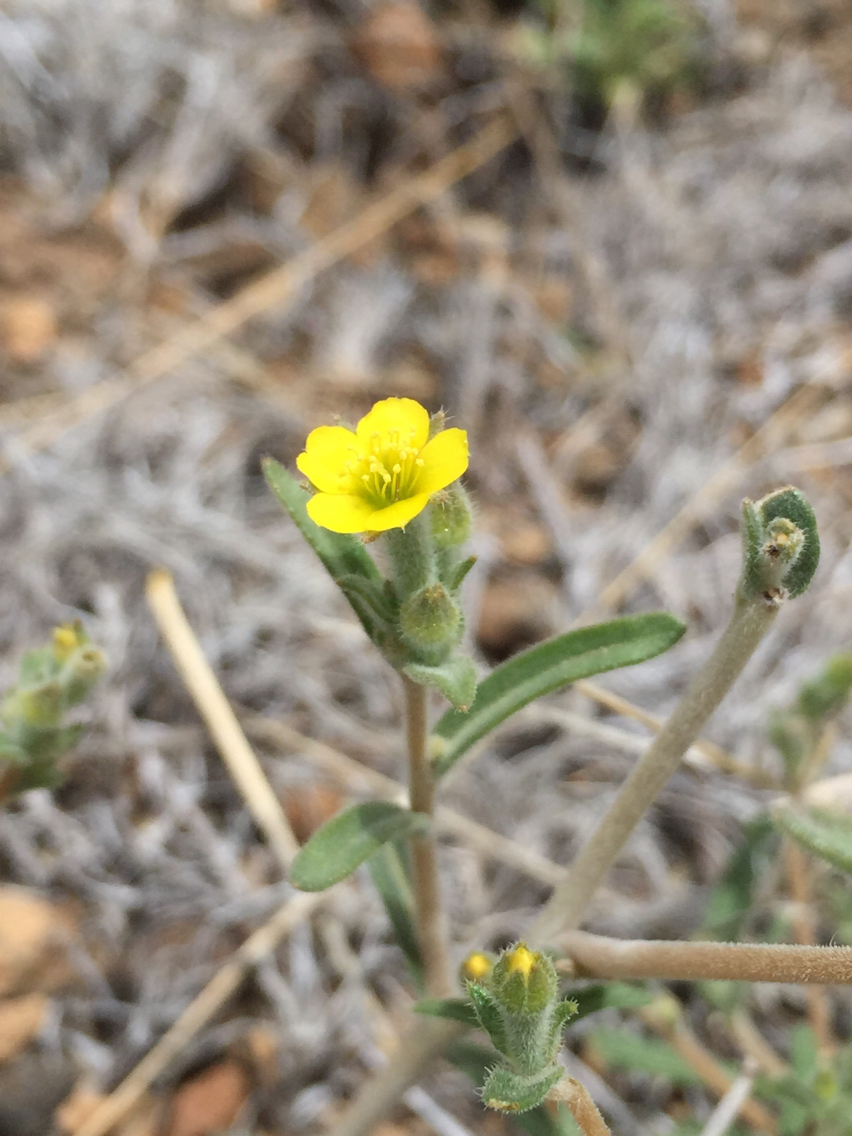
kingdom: Plantae
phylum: Tracheophyta
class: Magnoliopsida
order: Cornales
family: Loasaceae
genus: Mentzelia
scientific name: Mentzelia albicaulis
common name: White-stem blazingstar
